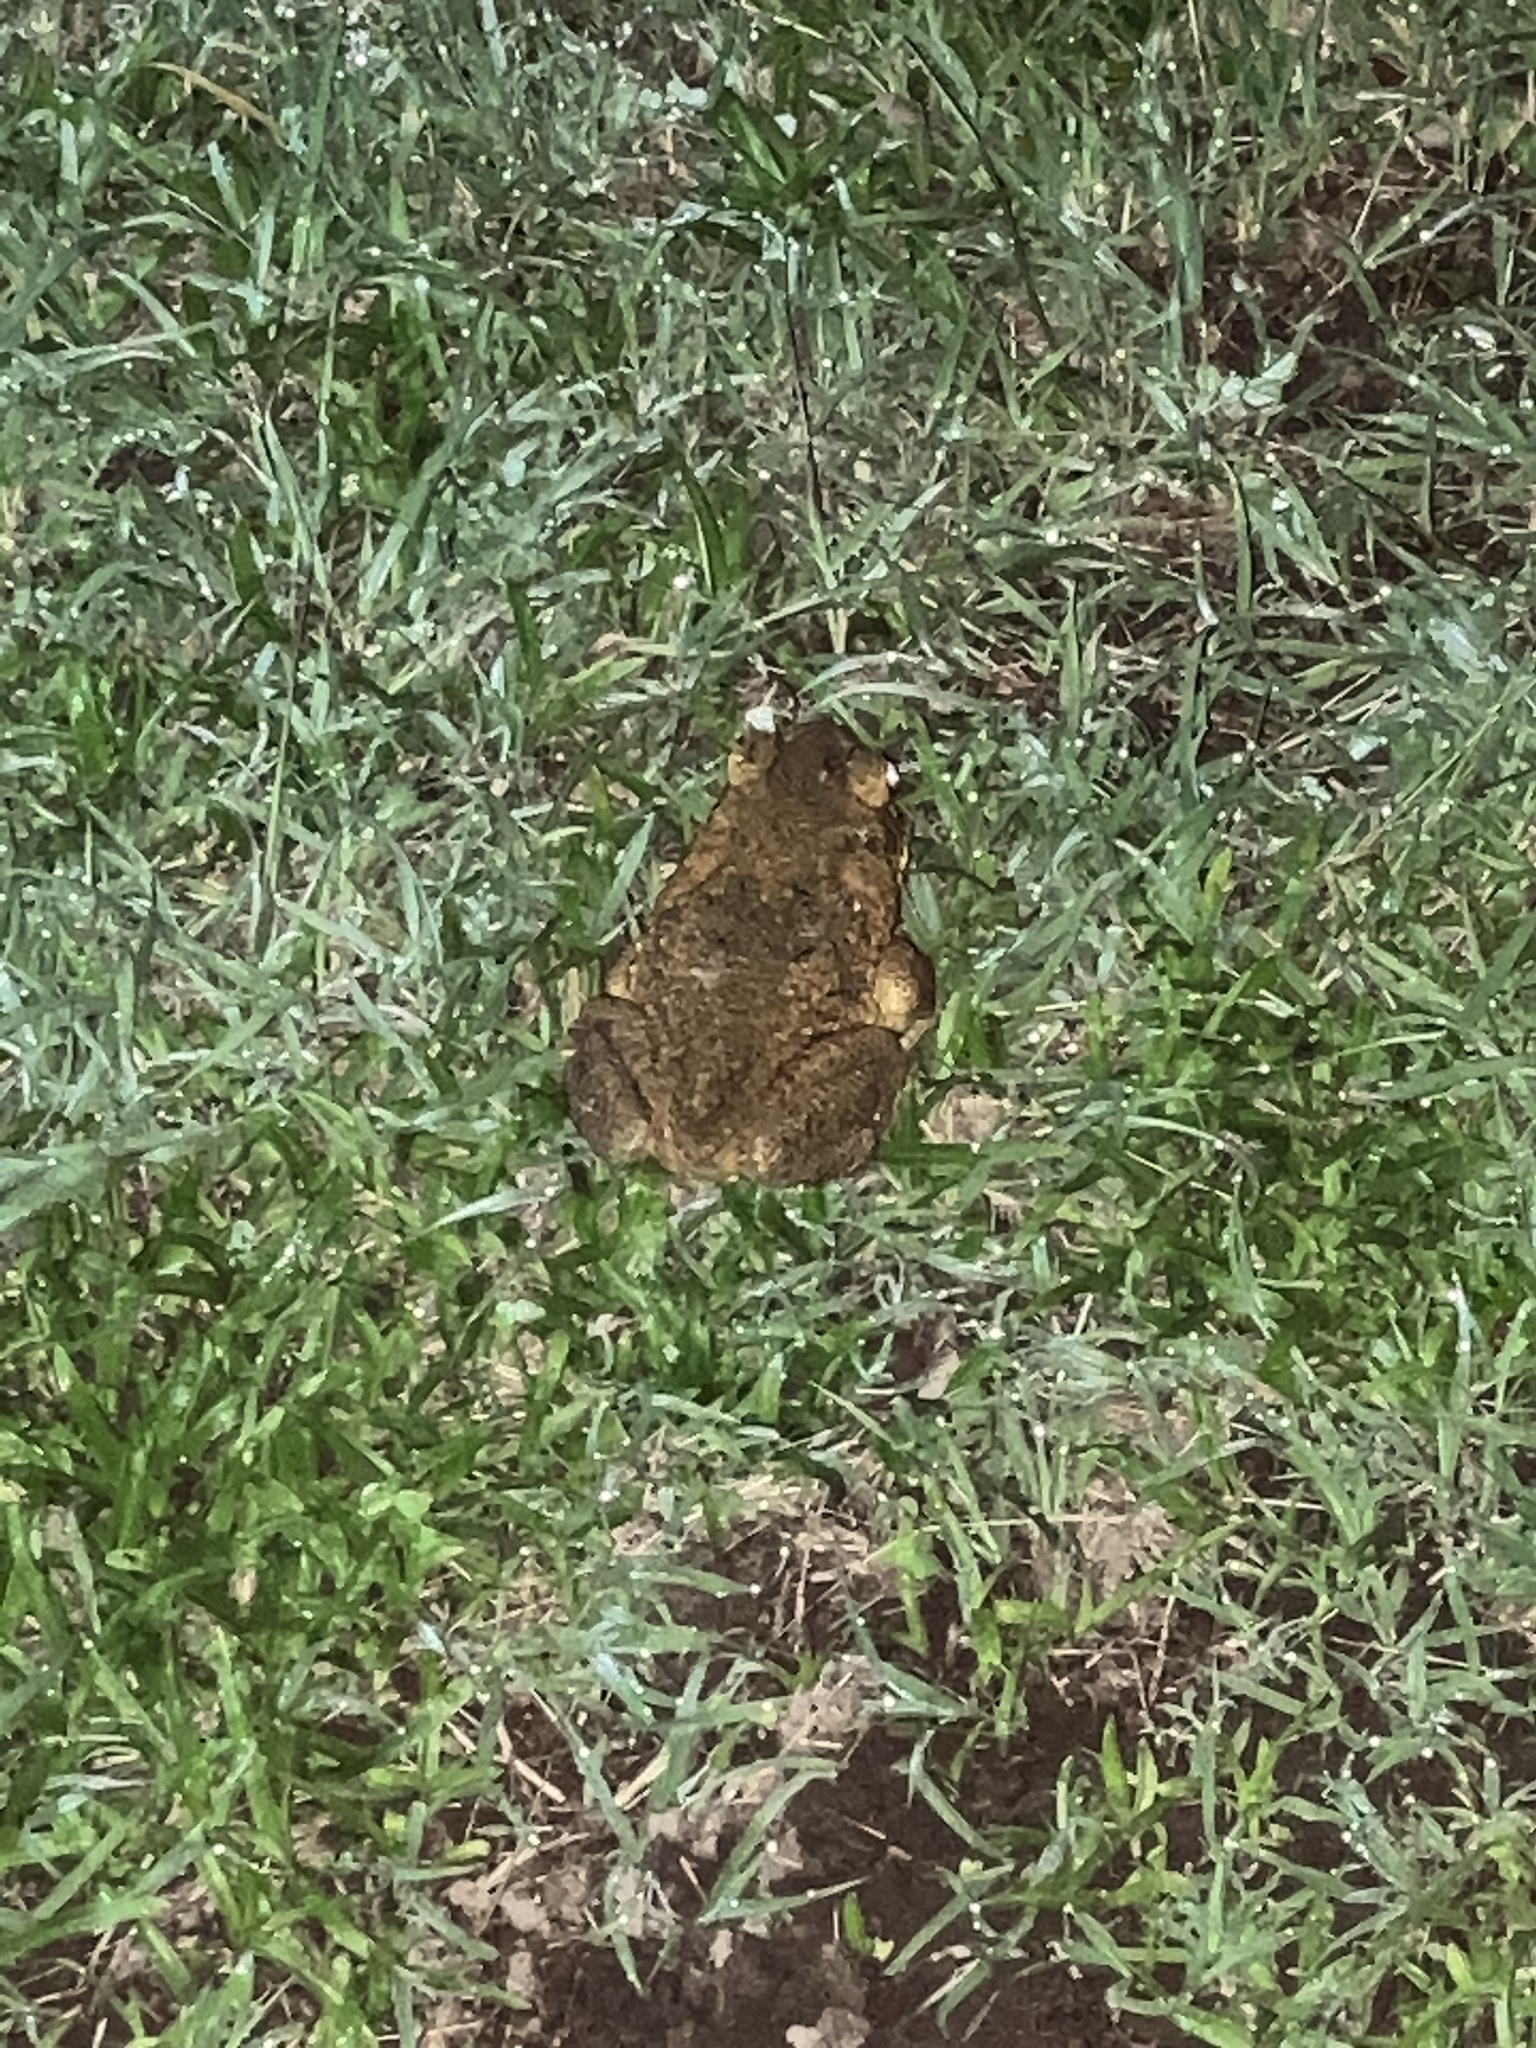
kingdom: Animalia
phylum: Chordata
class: Amphibia
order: Anura
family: Bufonidae
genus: Rhinella
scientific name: Rhinella marina
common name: Cane toad
